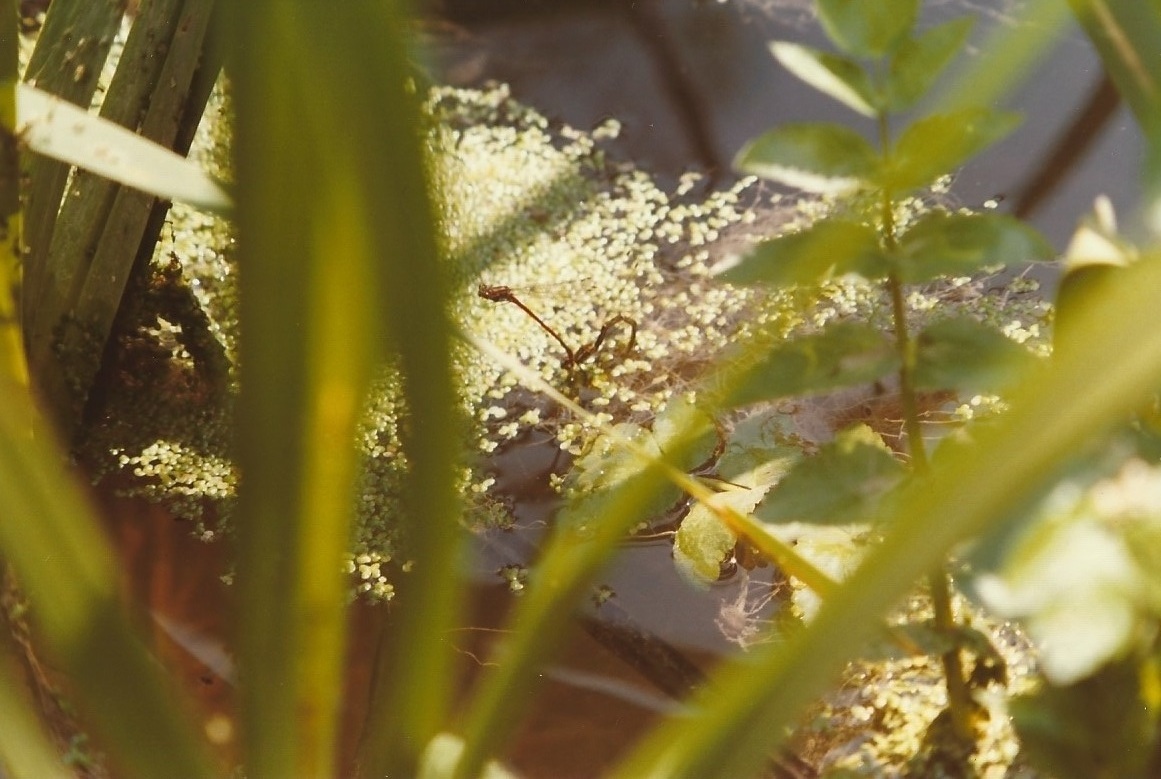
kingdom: Animalia
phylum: Arthropoda
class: Insecta
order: Odonata
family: Coenagrionidae
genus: Pyrrhosoma
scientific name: Pyrrhosoma nymphula
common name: Large red damsel
